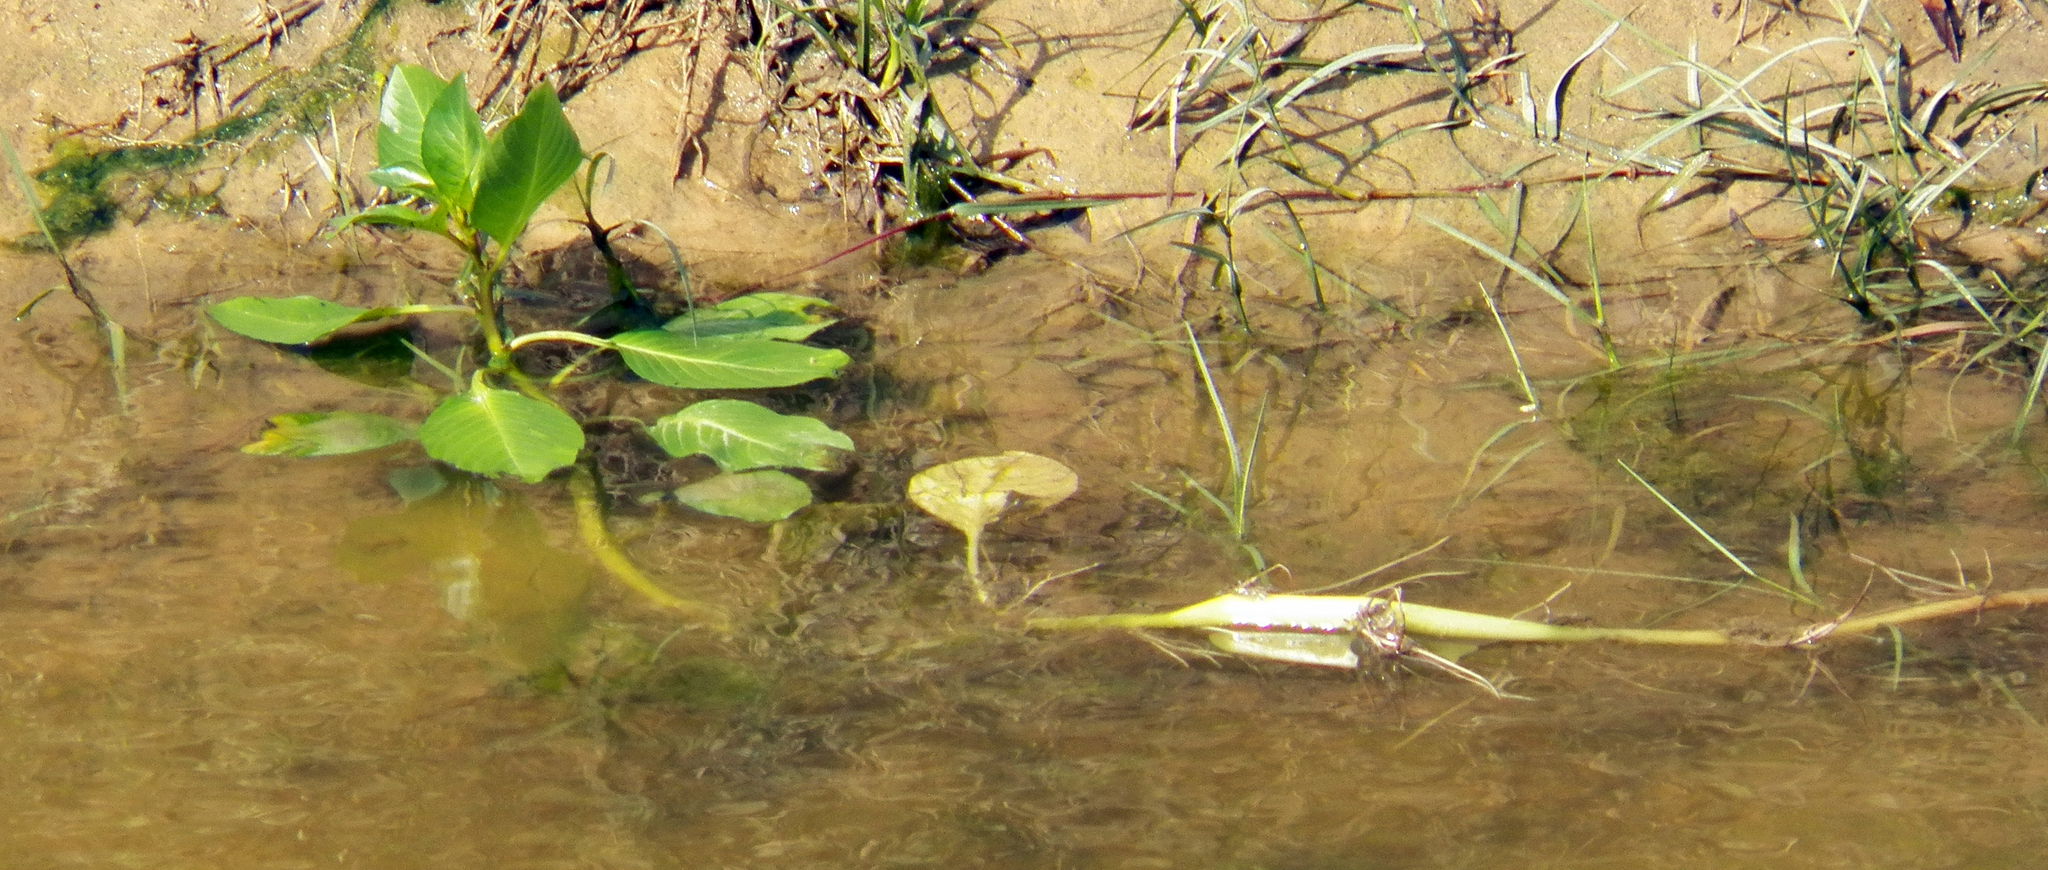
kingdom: Plantae
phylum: Tracheophyta
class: Magnoliopsida
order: Myrtales
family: Onagraceae
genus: Ludwigia
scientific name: Ludwigia peploides
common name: Floating primrose-willow
